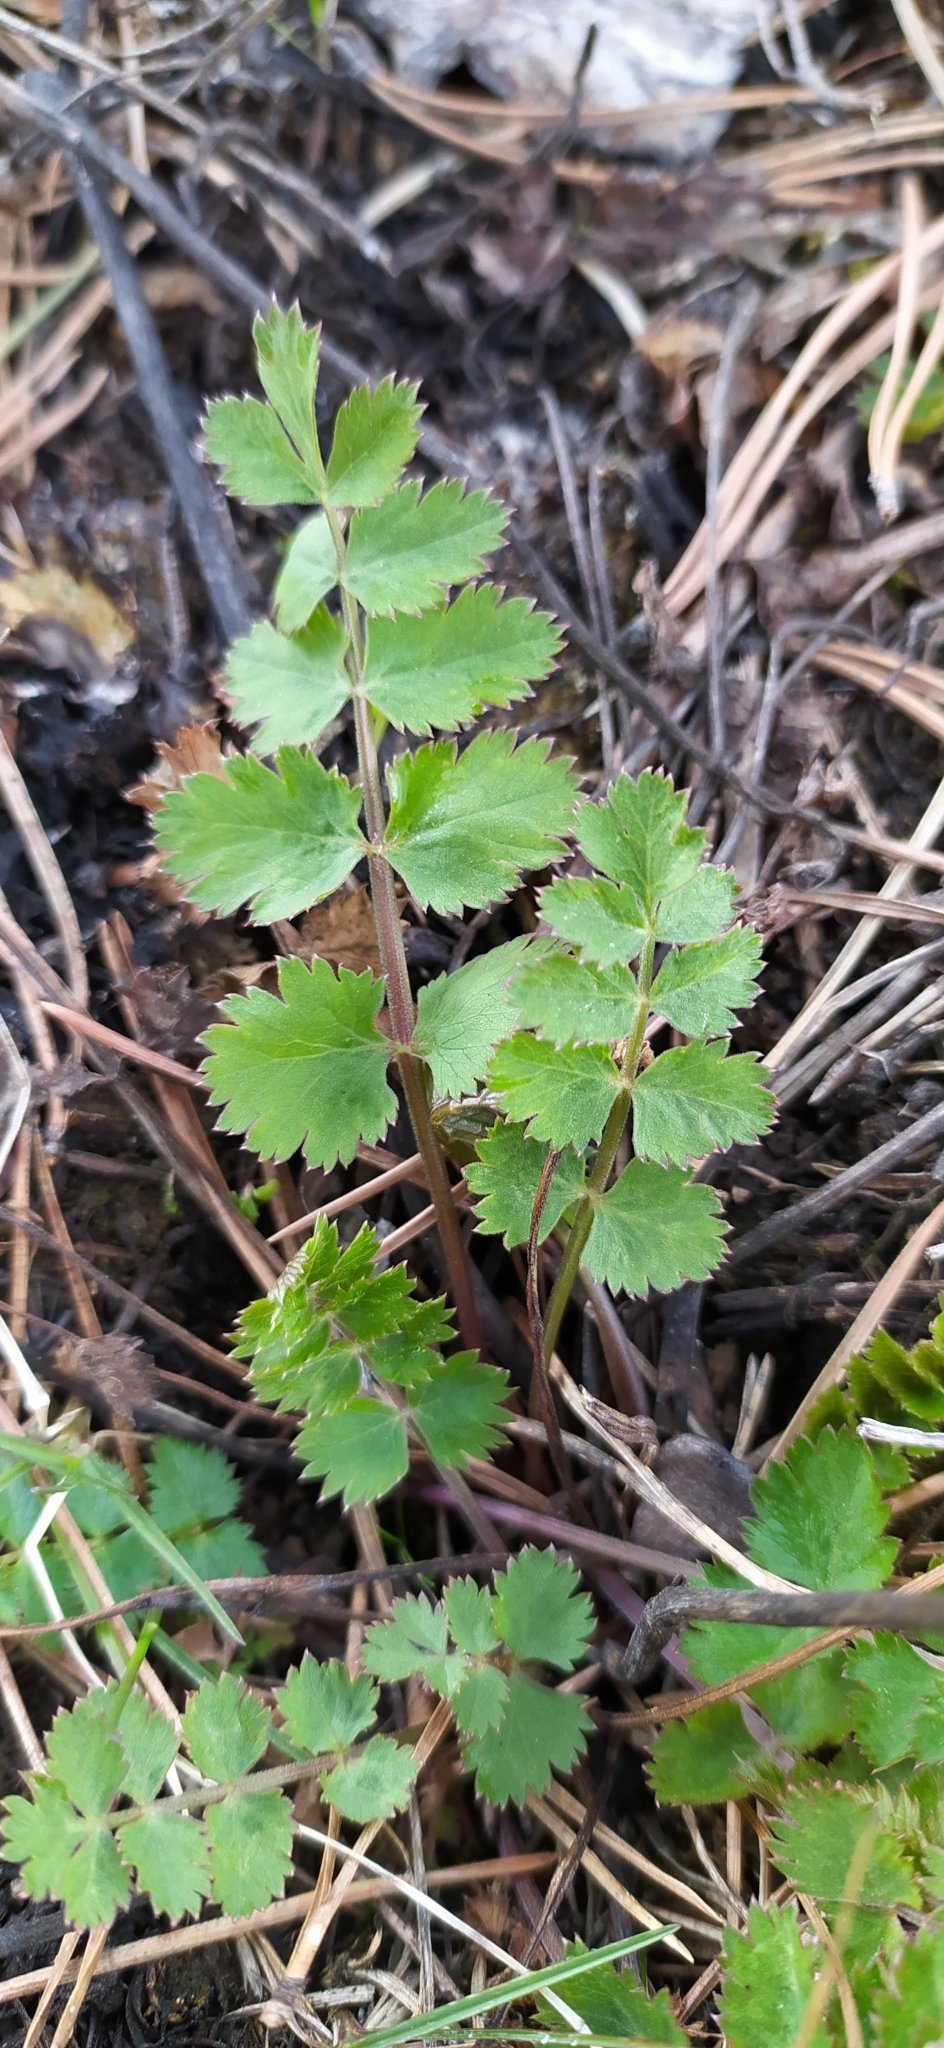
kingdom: Plantae
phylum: Tracheophyta
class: Magnoliopsida
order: Apiales
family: Apiaceae
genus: Pimpinella
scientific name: Pimpinella saxifraga
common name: Burnet-saxifrage
